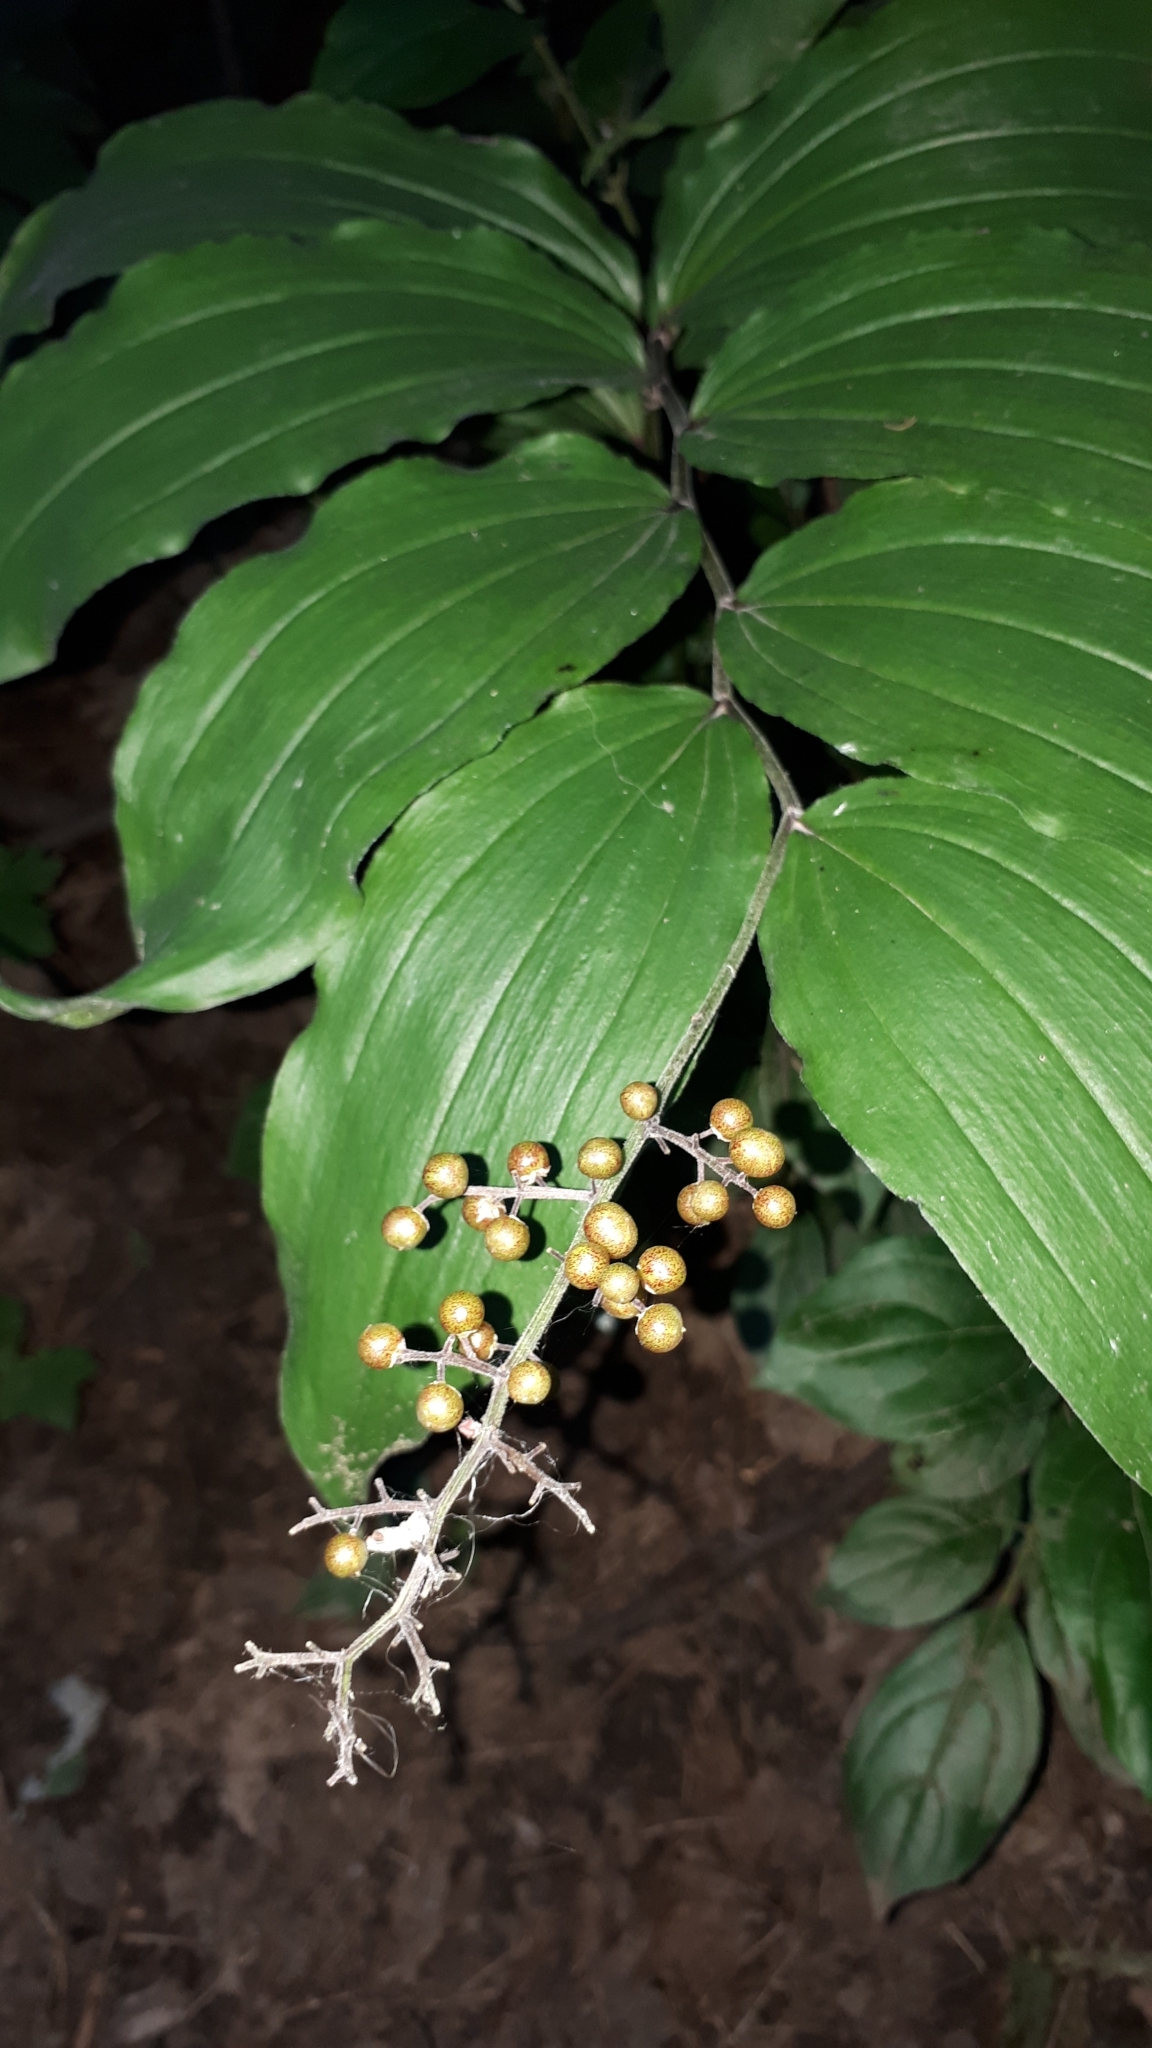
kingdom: Plantae
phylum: Tracheophyta
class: Liliopsida
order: Asparagales
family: Asparagaceae
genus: Maianthemum
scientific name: Maianthemum racemosum
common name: False spikenard
